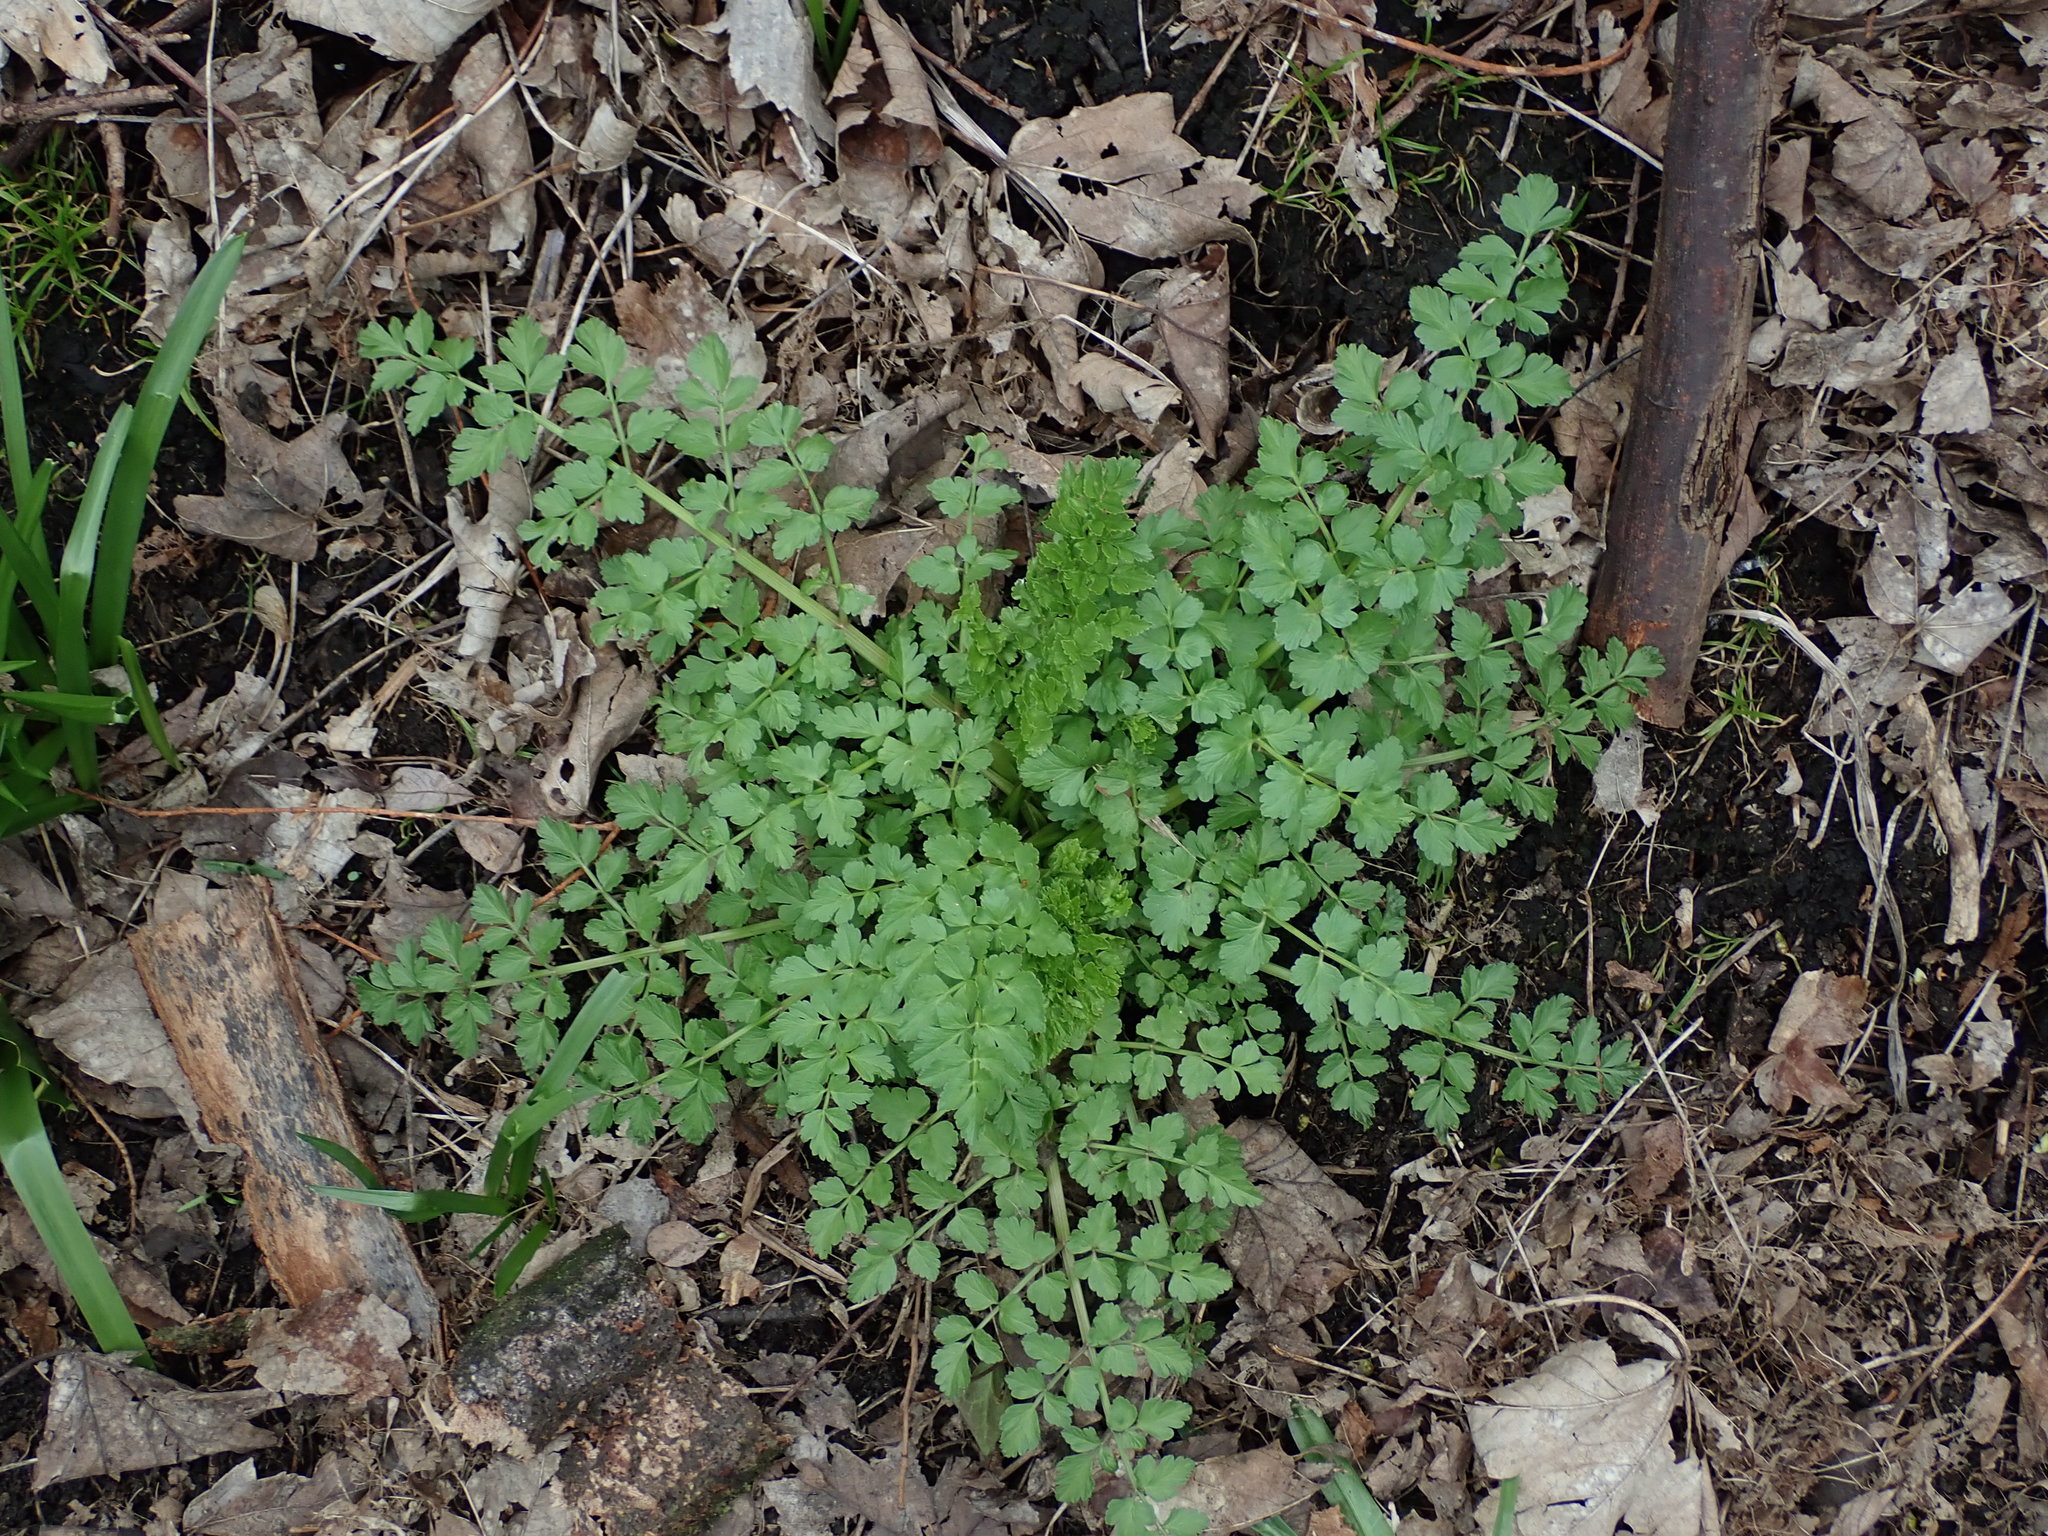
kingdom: Plantae
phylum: Tracheophyta
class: Magnoliopsida
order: Apiales
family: Apiaceae
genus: Oenanthe
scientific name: Oenanthe crocata
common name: Hemlock water-dropwort
